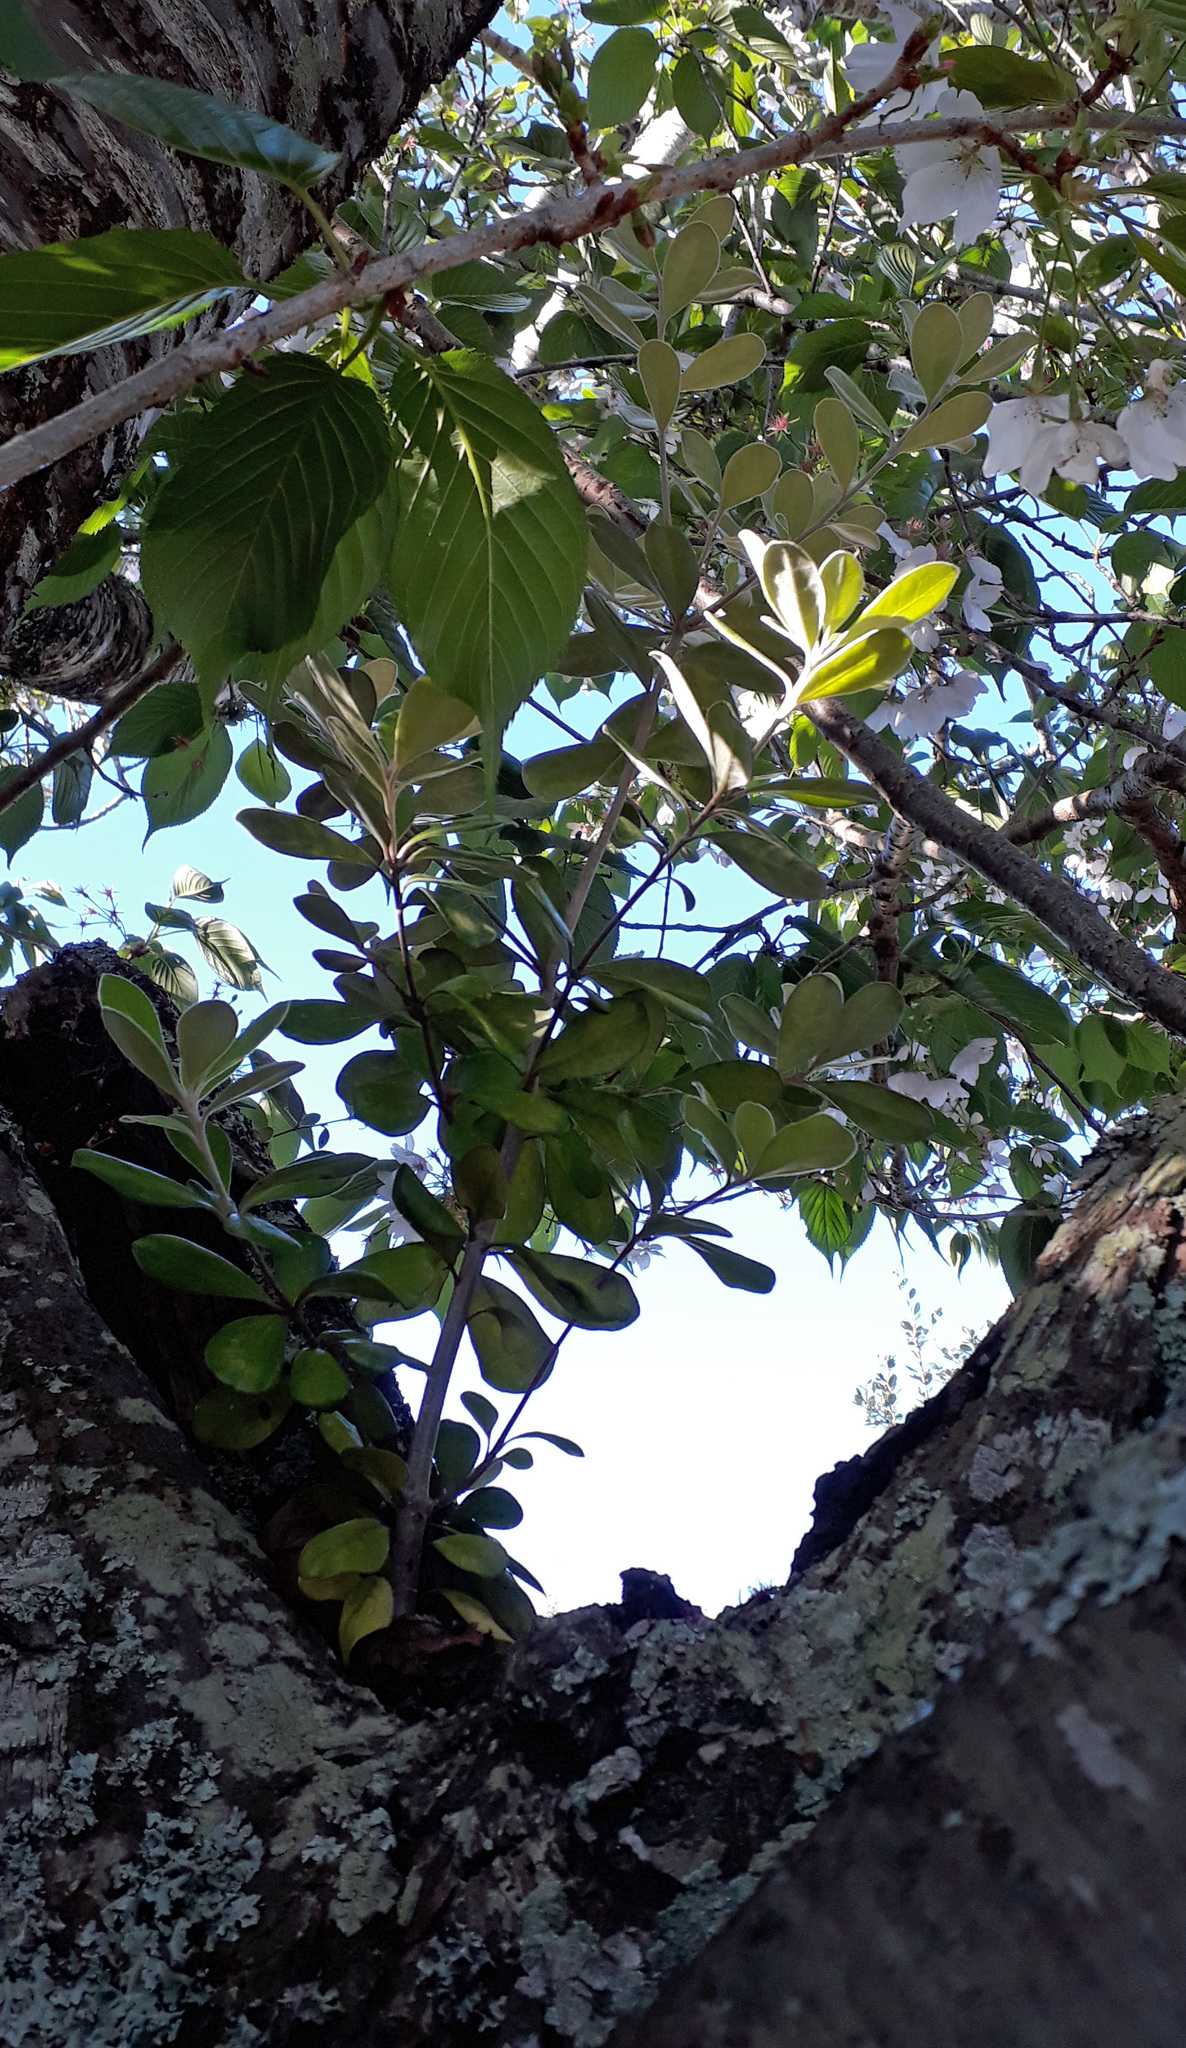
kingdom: Plantae
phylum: Tracheophyta
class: Magnoliopsida
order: Apiales
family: Pittosporaceae
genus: Pittosporum
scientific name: Pittosporum crassifolium
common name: Karo
